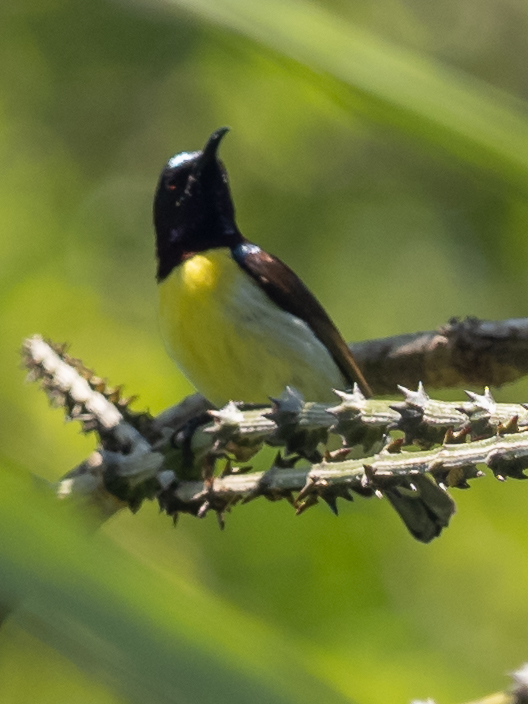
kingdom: Animalia
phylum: Chordata
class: Aves
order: Passeriformes
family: Nectariniidae
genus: Leptocoma
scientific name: Leptocoma zeylonica
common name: Purple-rumped sunbird
